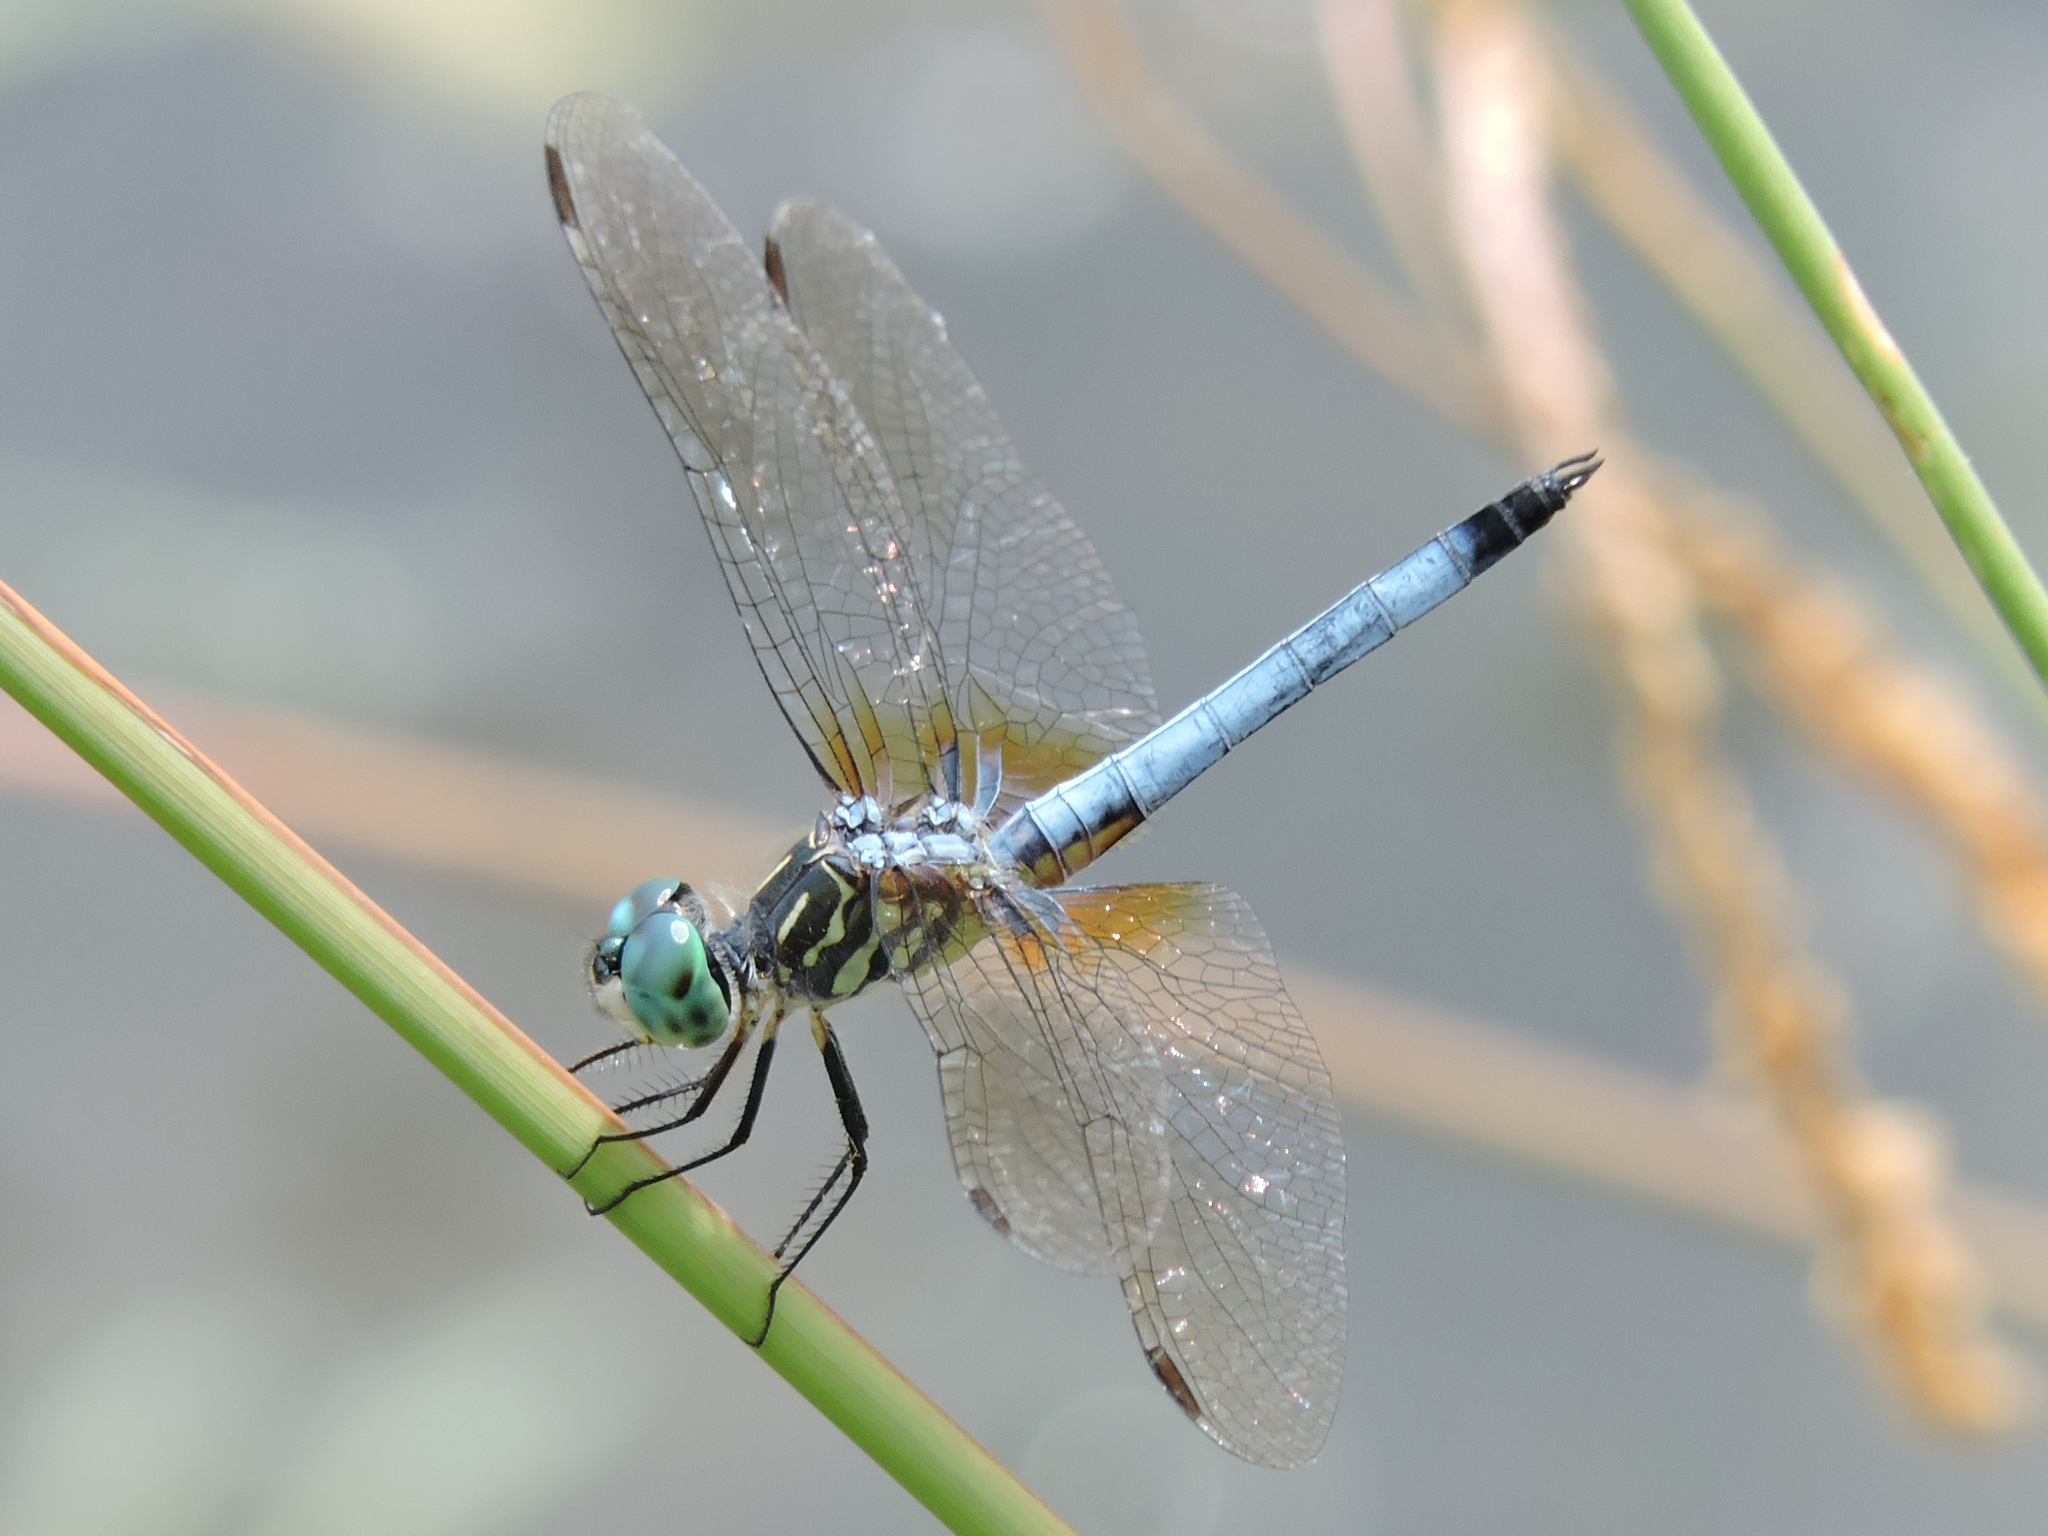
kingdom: Animalia
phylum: Arthropoda
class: Insecta
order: Odonata
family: Libellulidae
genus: Pachydiplax
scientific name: Pachydiplax longipennis
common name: Blue dasher
